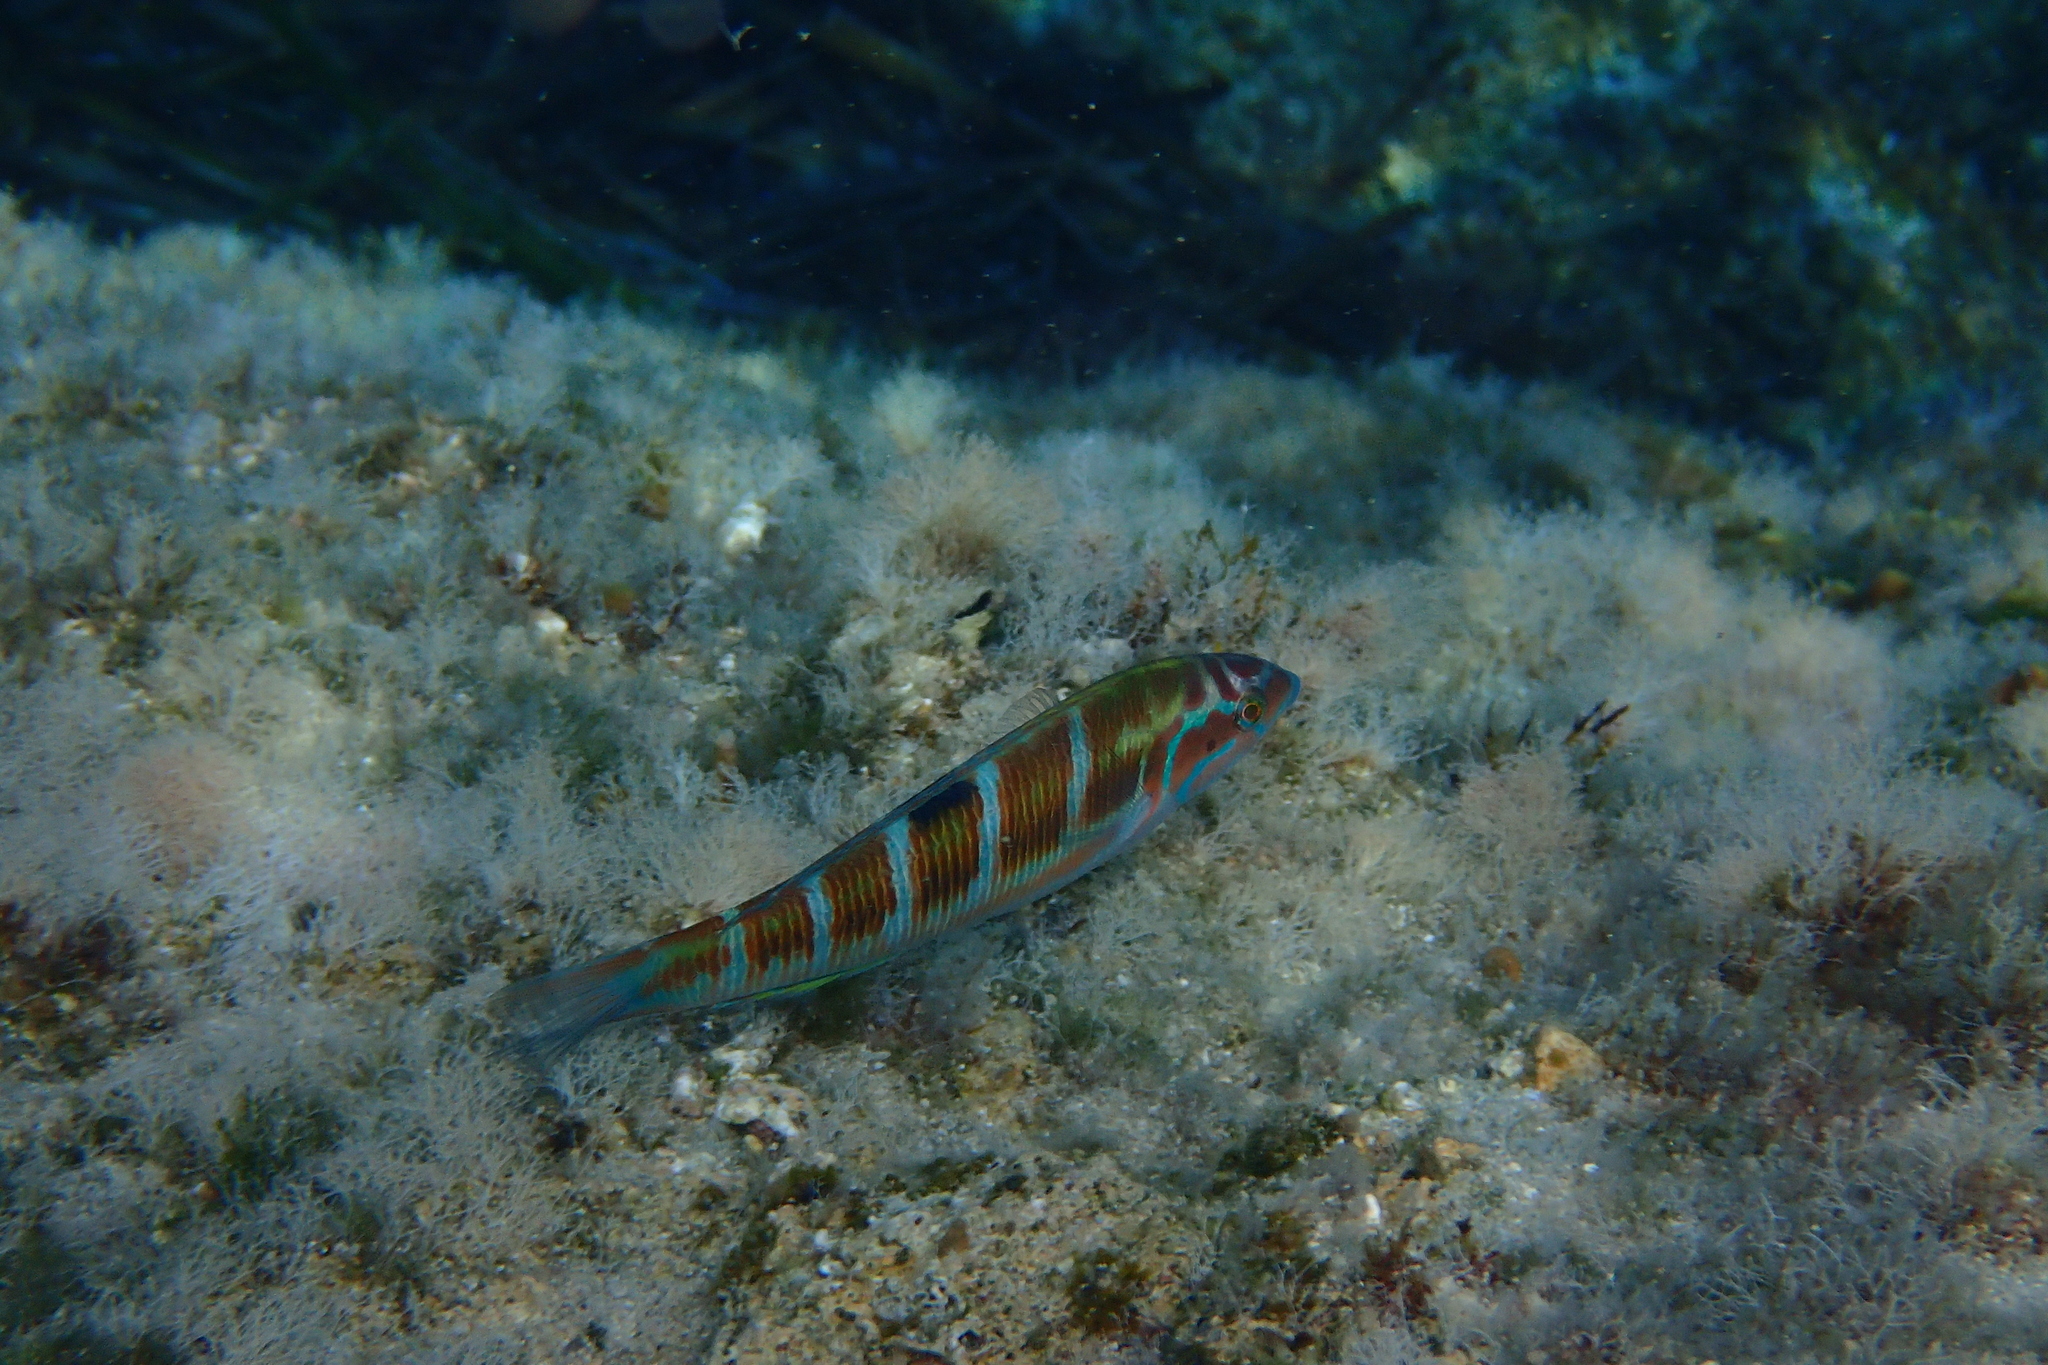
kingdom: Animalia
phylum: Chordata
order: Perciformes
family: Labridae
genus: Thalassoma
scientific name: Thalassoma pavo
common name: Ornate wrasse
